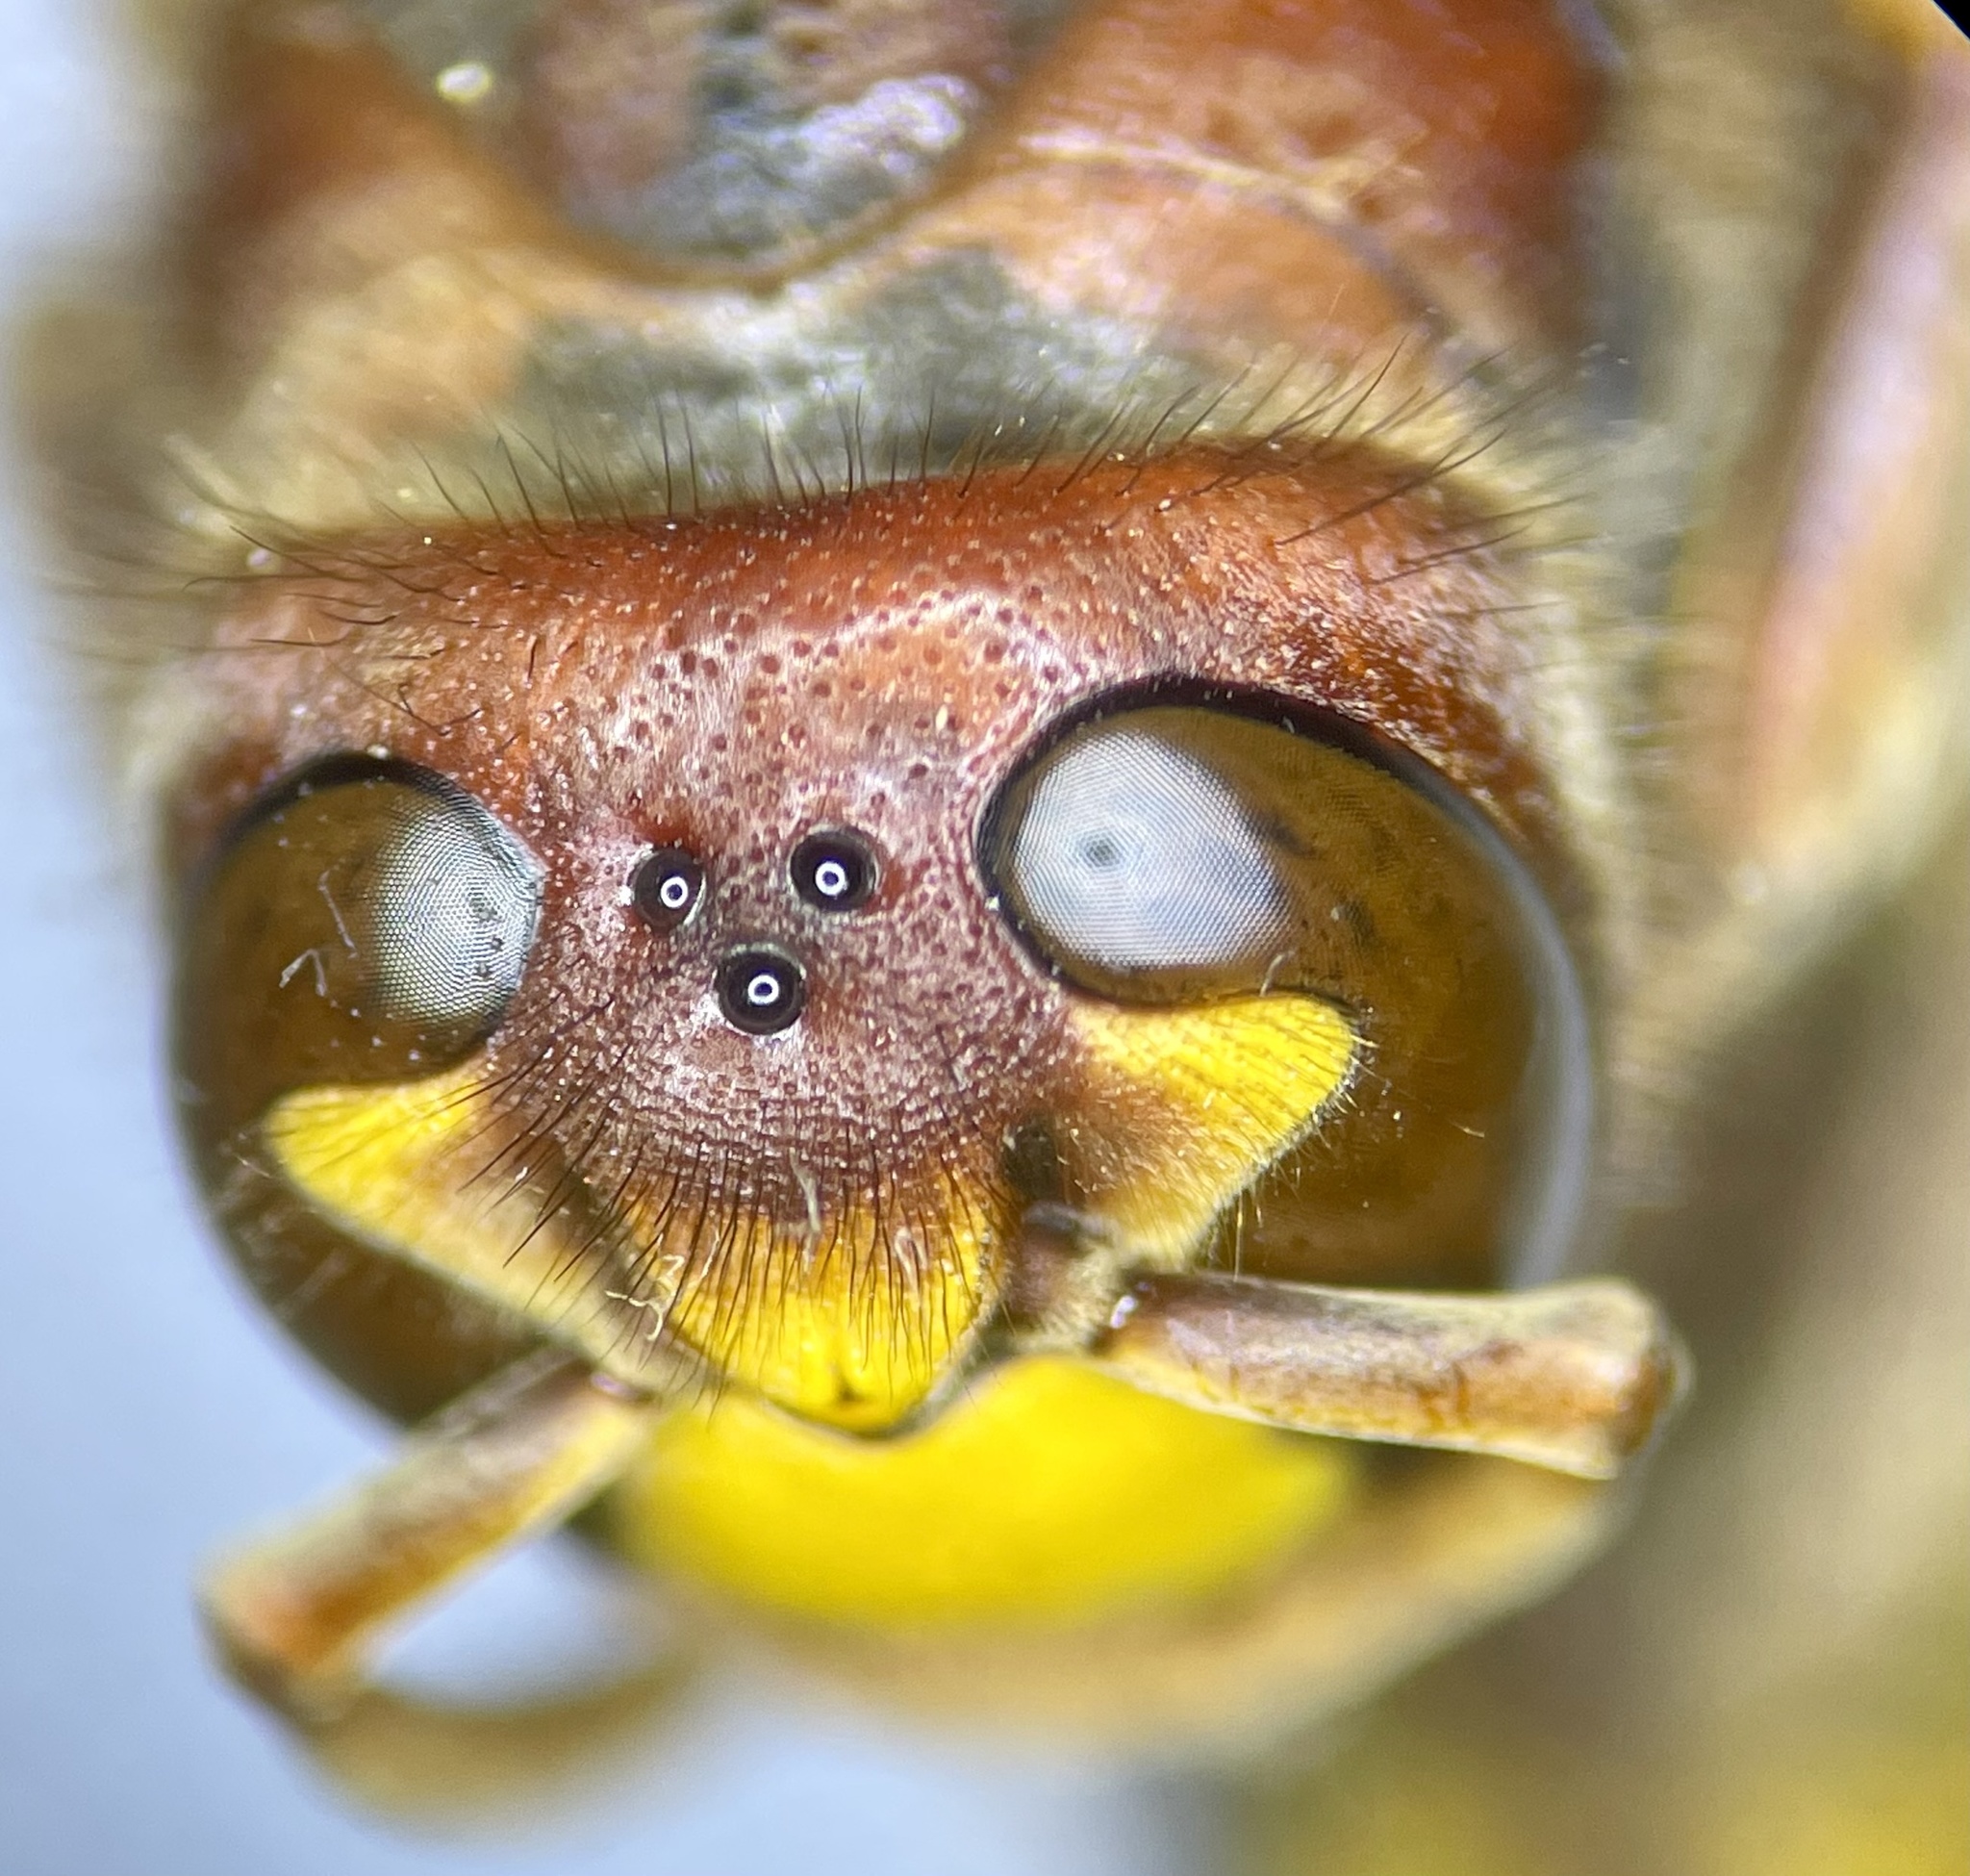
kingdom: Animalia
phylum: Arthropoda
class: Insecta
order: Hymenoptera
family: Vespidae
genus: Vespa
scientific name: Vespa crabro
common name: Hornet
